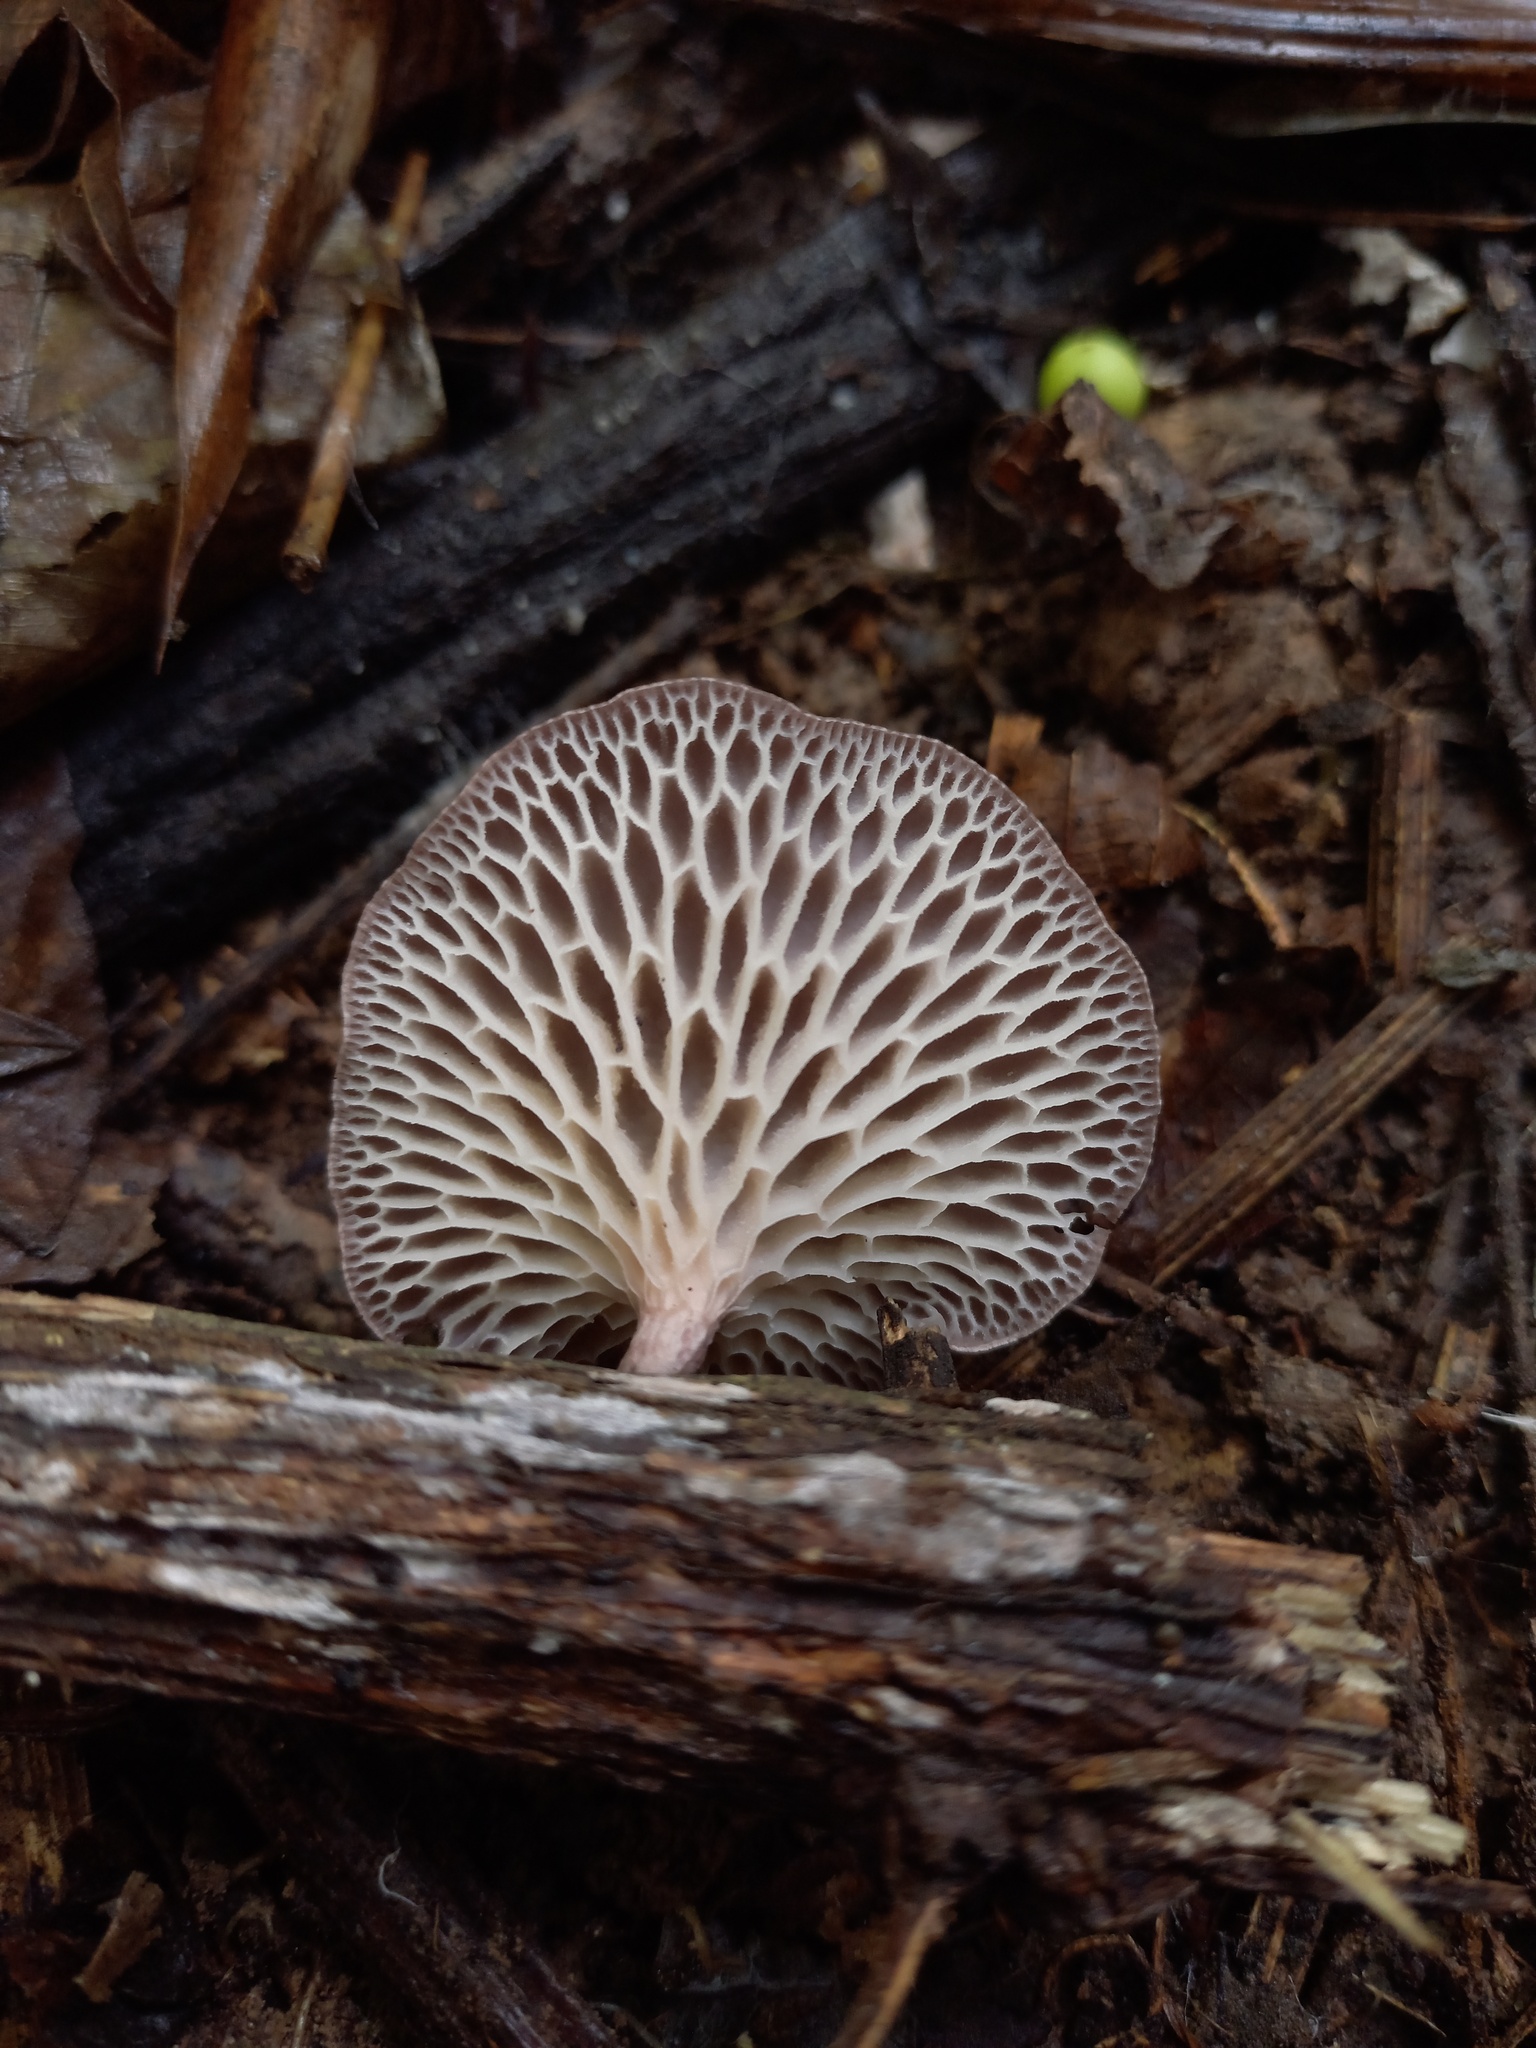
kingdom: Fungi
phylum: Basidiomycota
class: Agaricomycetes
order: Polyporales
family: Polyporaceae
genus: Neofavolus
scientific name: Neofavolus subpurpurascens
